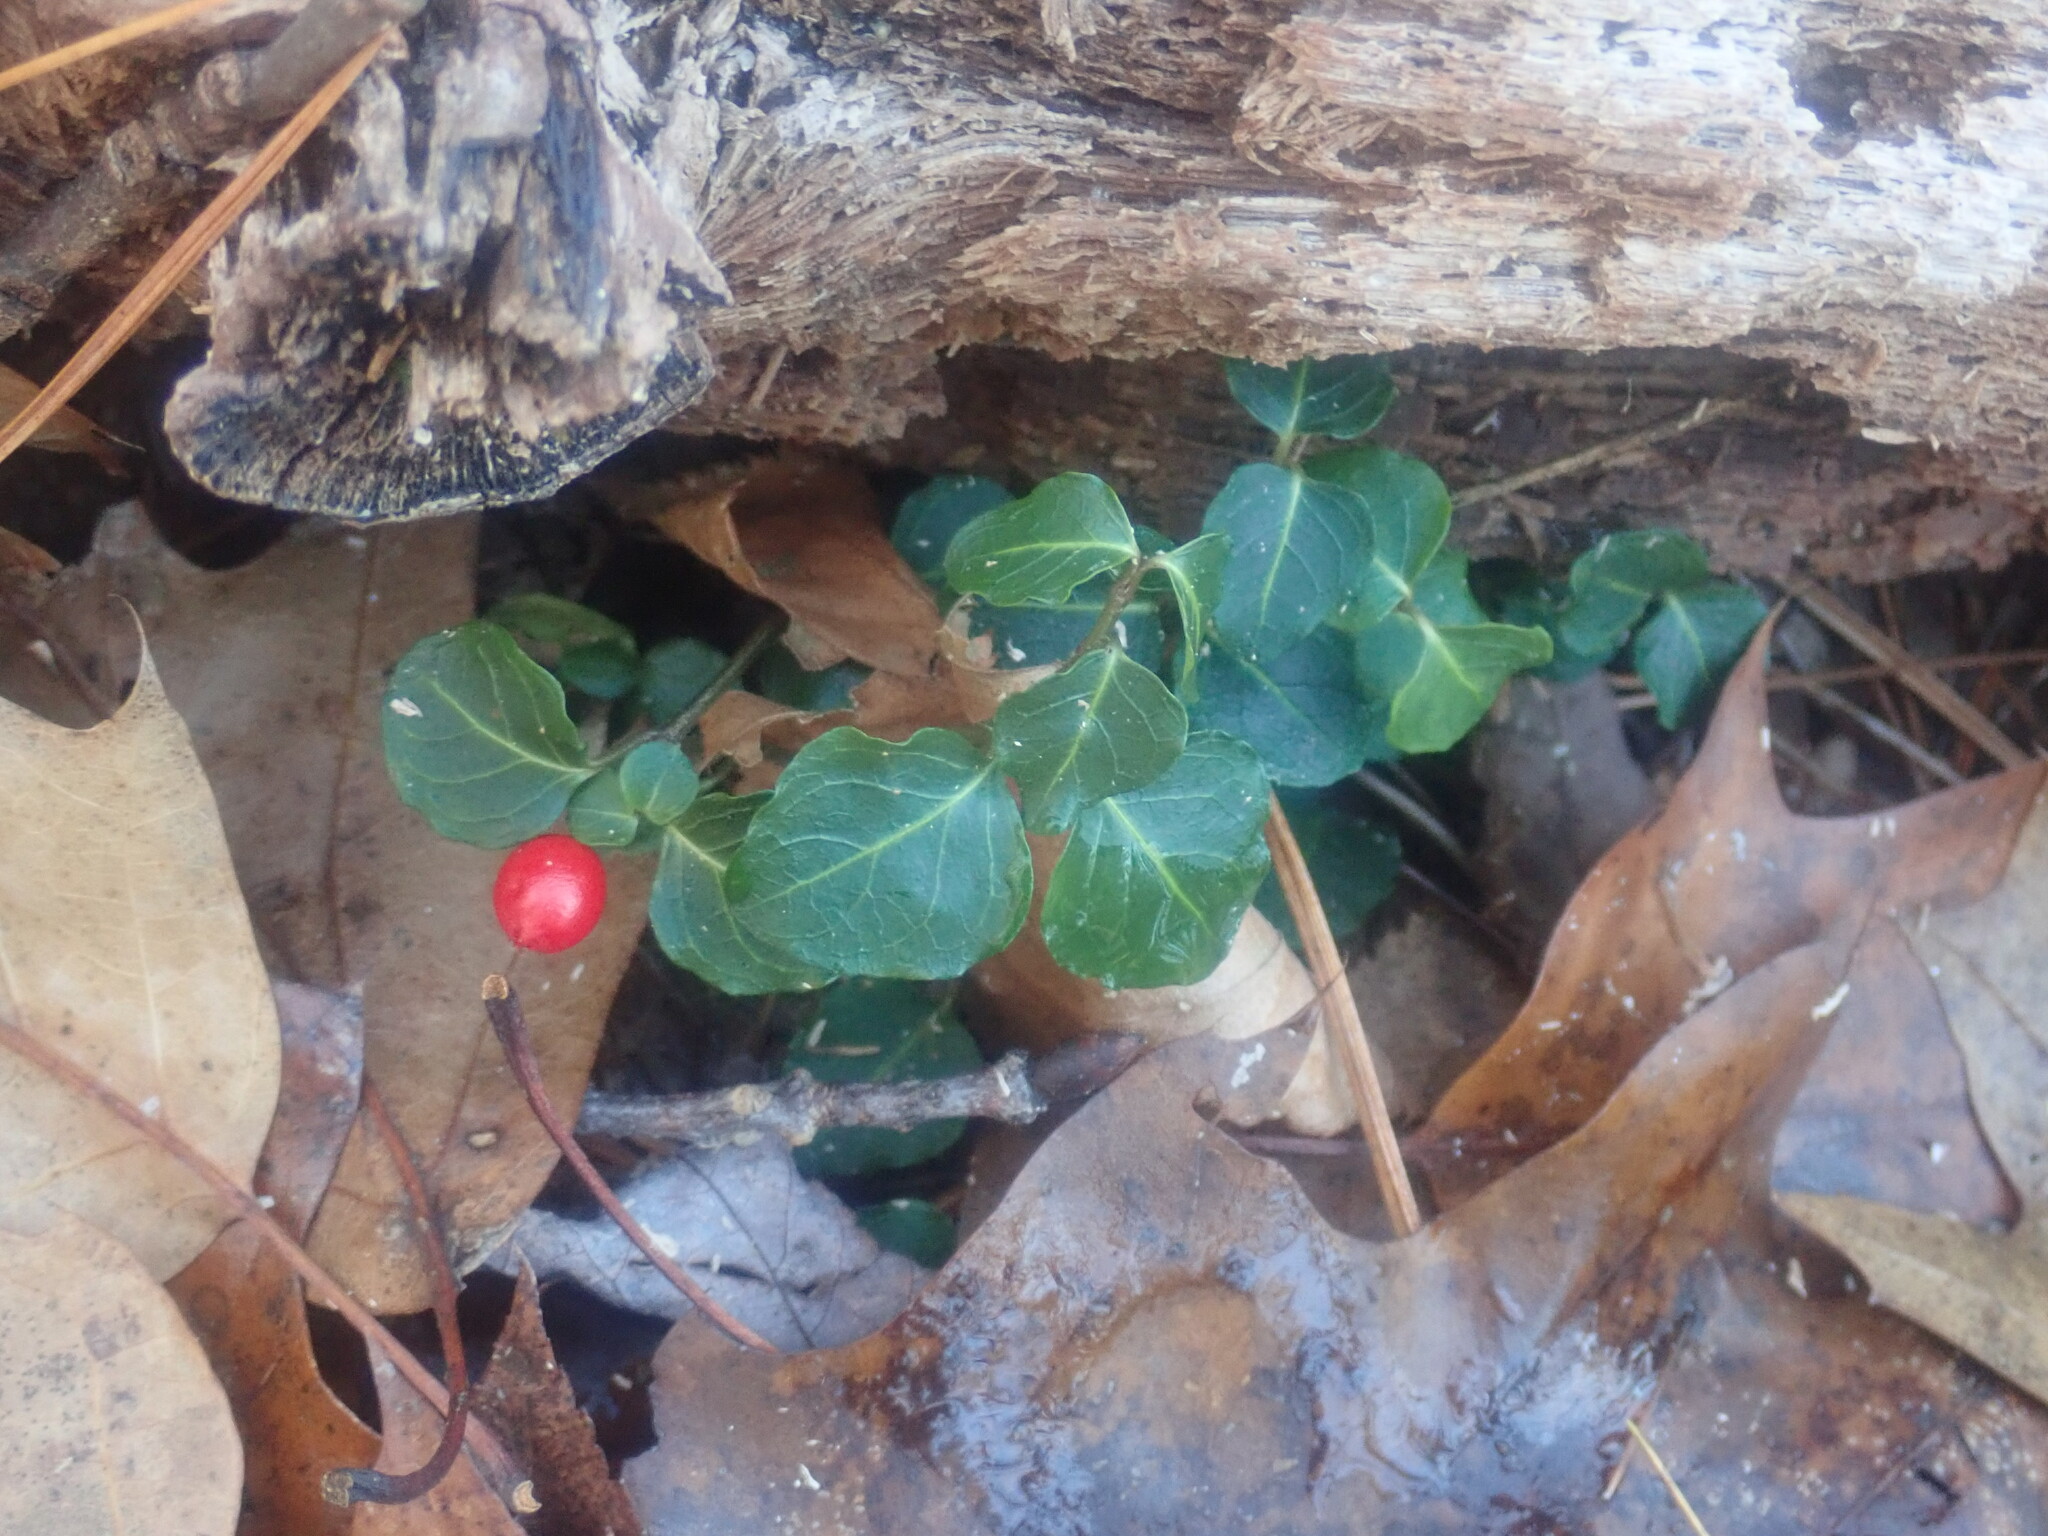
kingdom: Plantae
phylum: Tracheophyta
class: Magnoliopsida
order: Gentianales
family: Rubiaceae
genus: Mitchella
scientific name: Mitchella repens
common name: Partridge-berry
